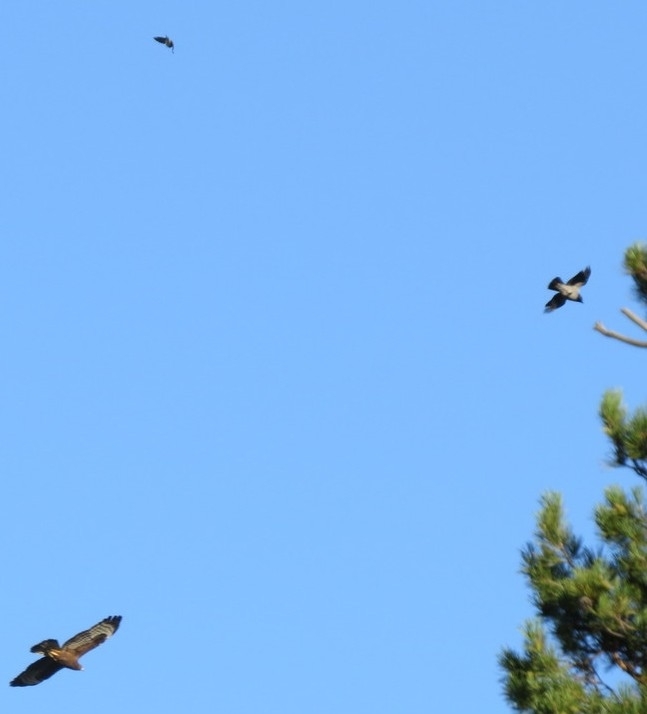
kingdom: Animalia
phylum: Chordata
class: Aves
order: Accipitriformes
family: Accipitridae
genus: Buteo
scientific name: Buteo buteo
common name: Common buzzard
